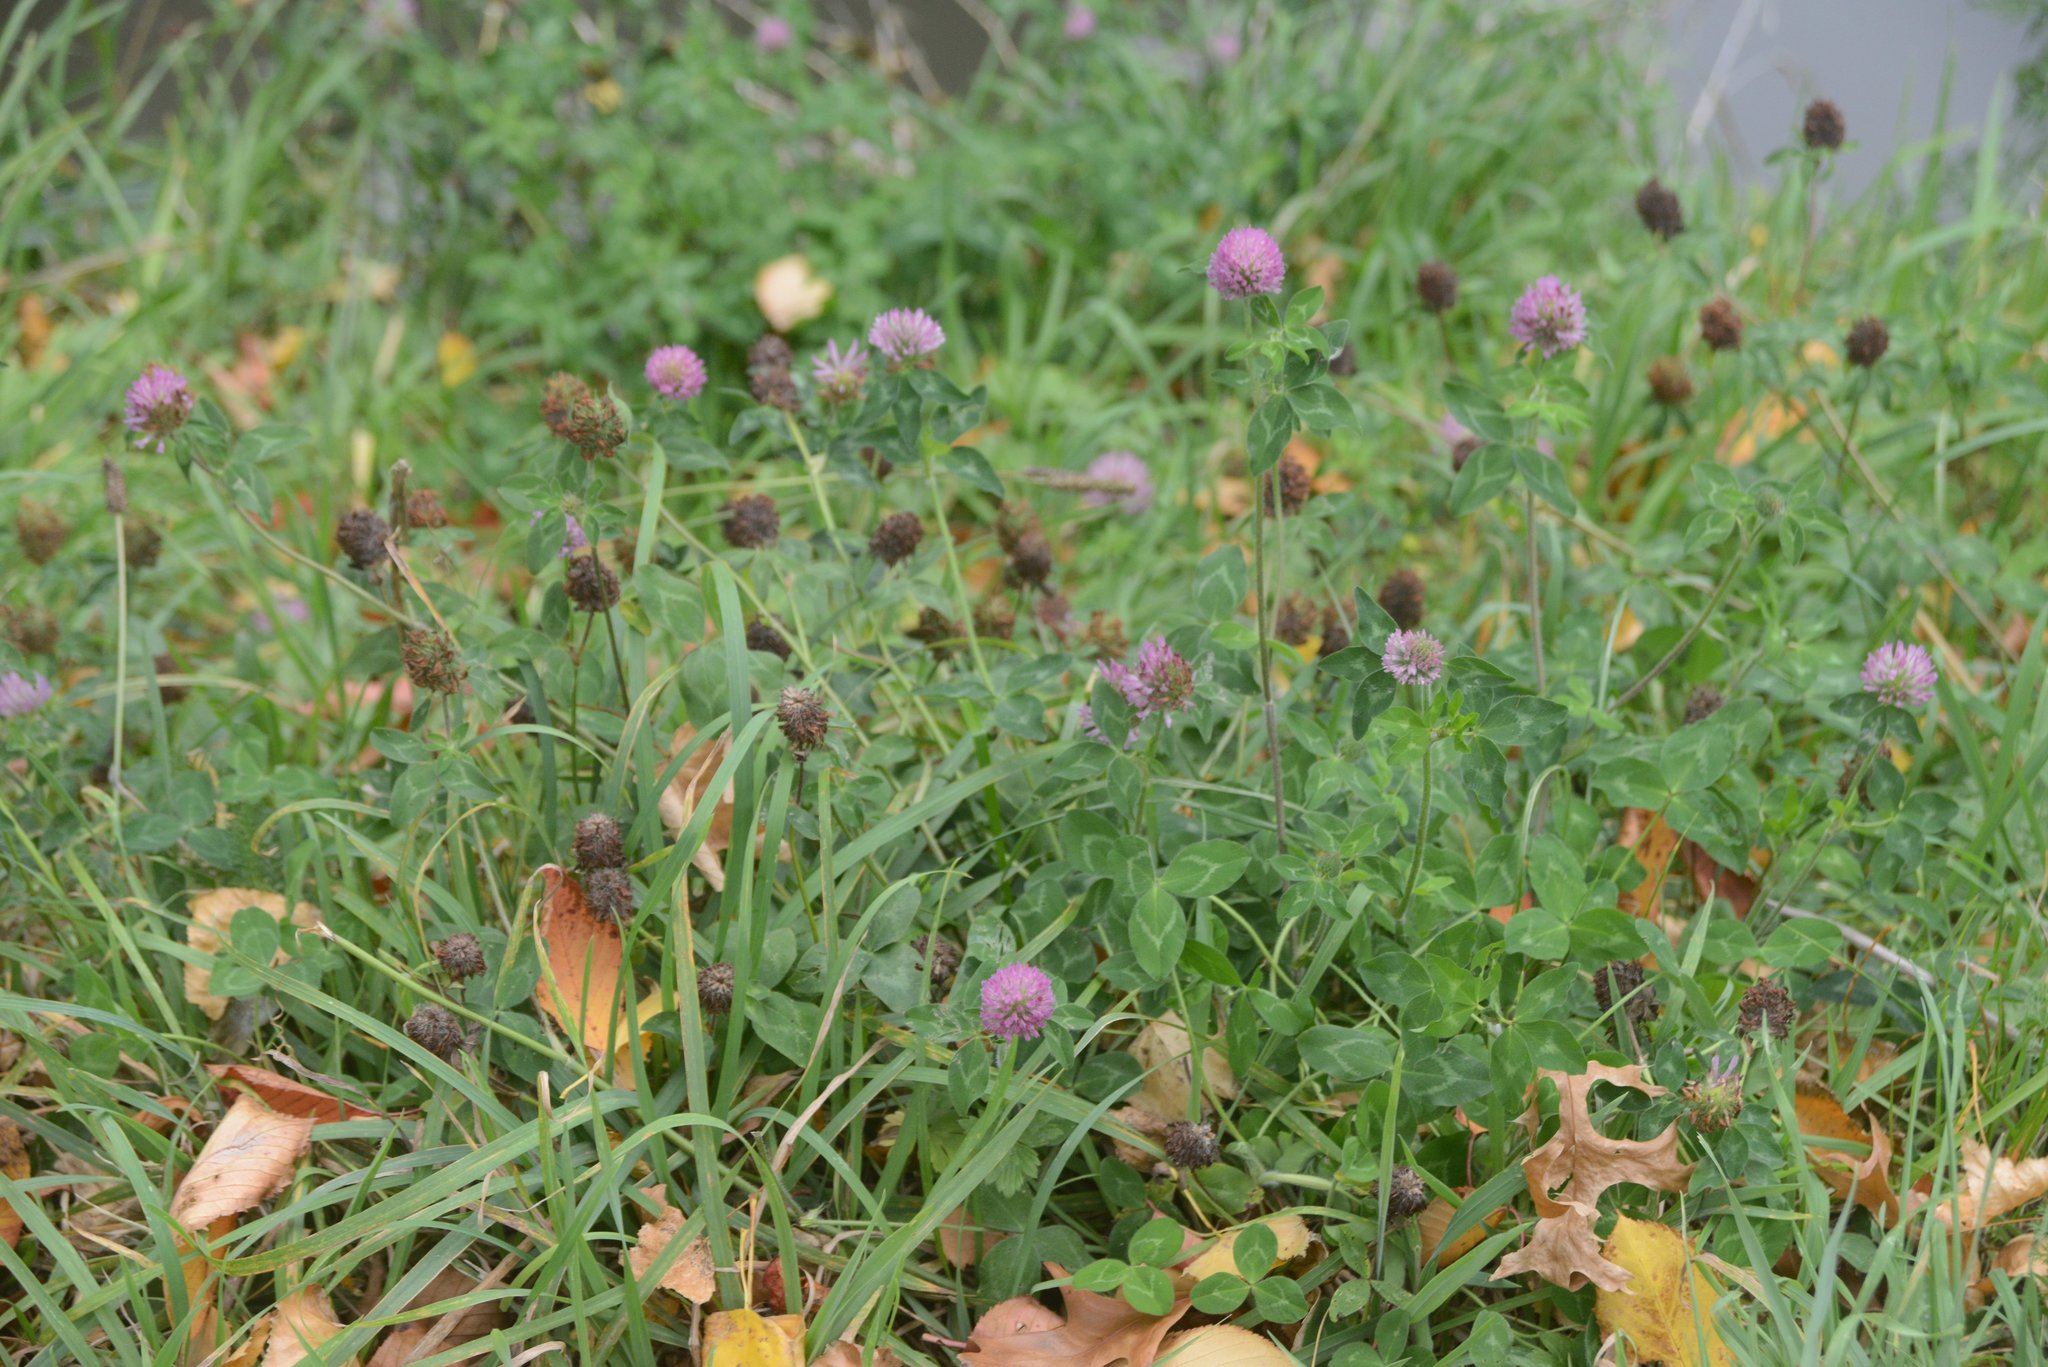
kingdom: Plantae
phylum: Tracheophyta
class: Magnoliopsida
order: Fabales
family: Fabaceae
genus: Trifolium
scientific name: Trifolium pratense
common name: Red clover
